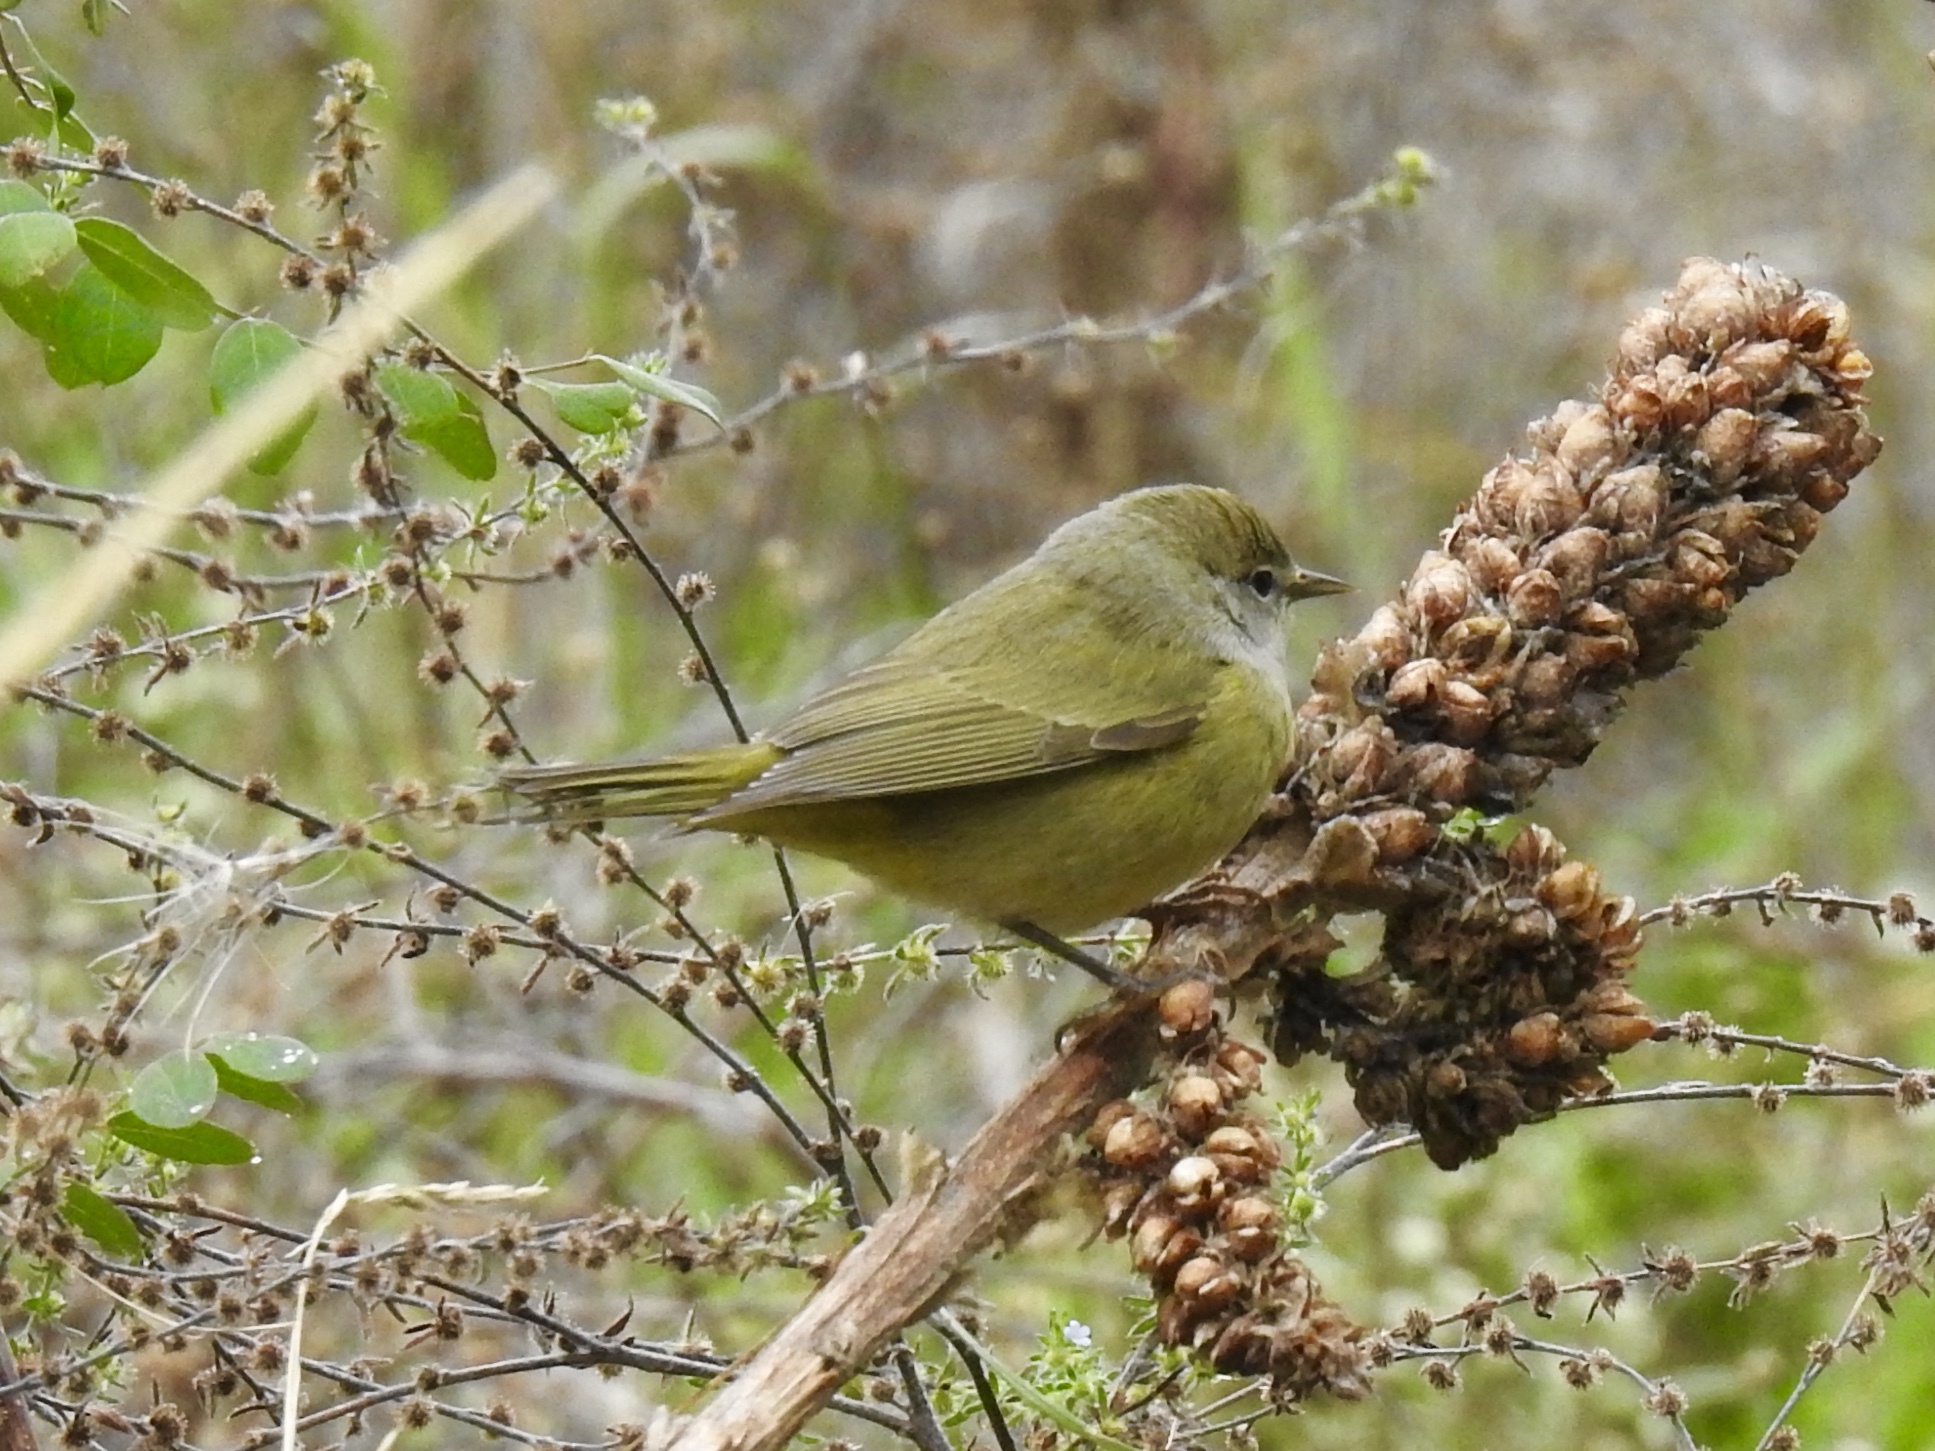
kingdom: Animalia
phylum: Chordata
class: Aves
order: Passeriformes
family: Parulidae
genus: Leiothlypis
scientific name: Leiothlypis celata
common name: Orange-crowned warbler
